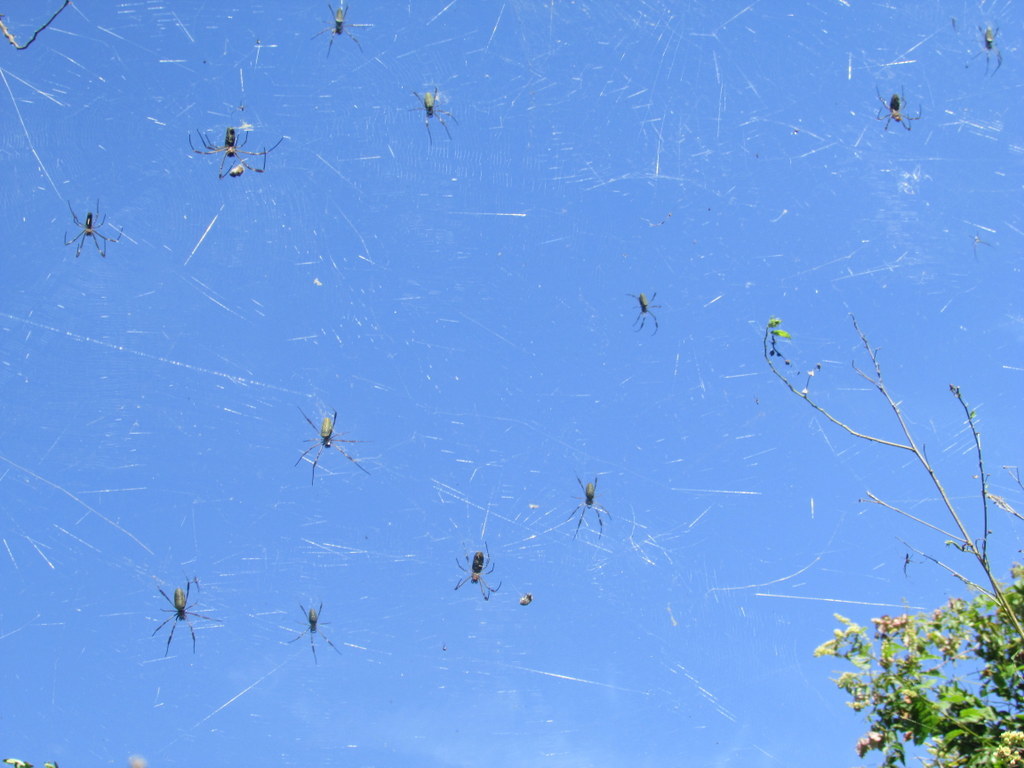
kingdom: Animalia
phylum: Arthropoda
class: Arachnida
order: Araneae
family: Araneidae
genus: Trichonephila
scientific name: Trichonephila clavipes
